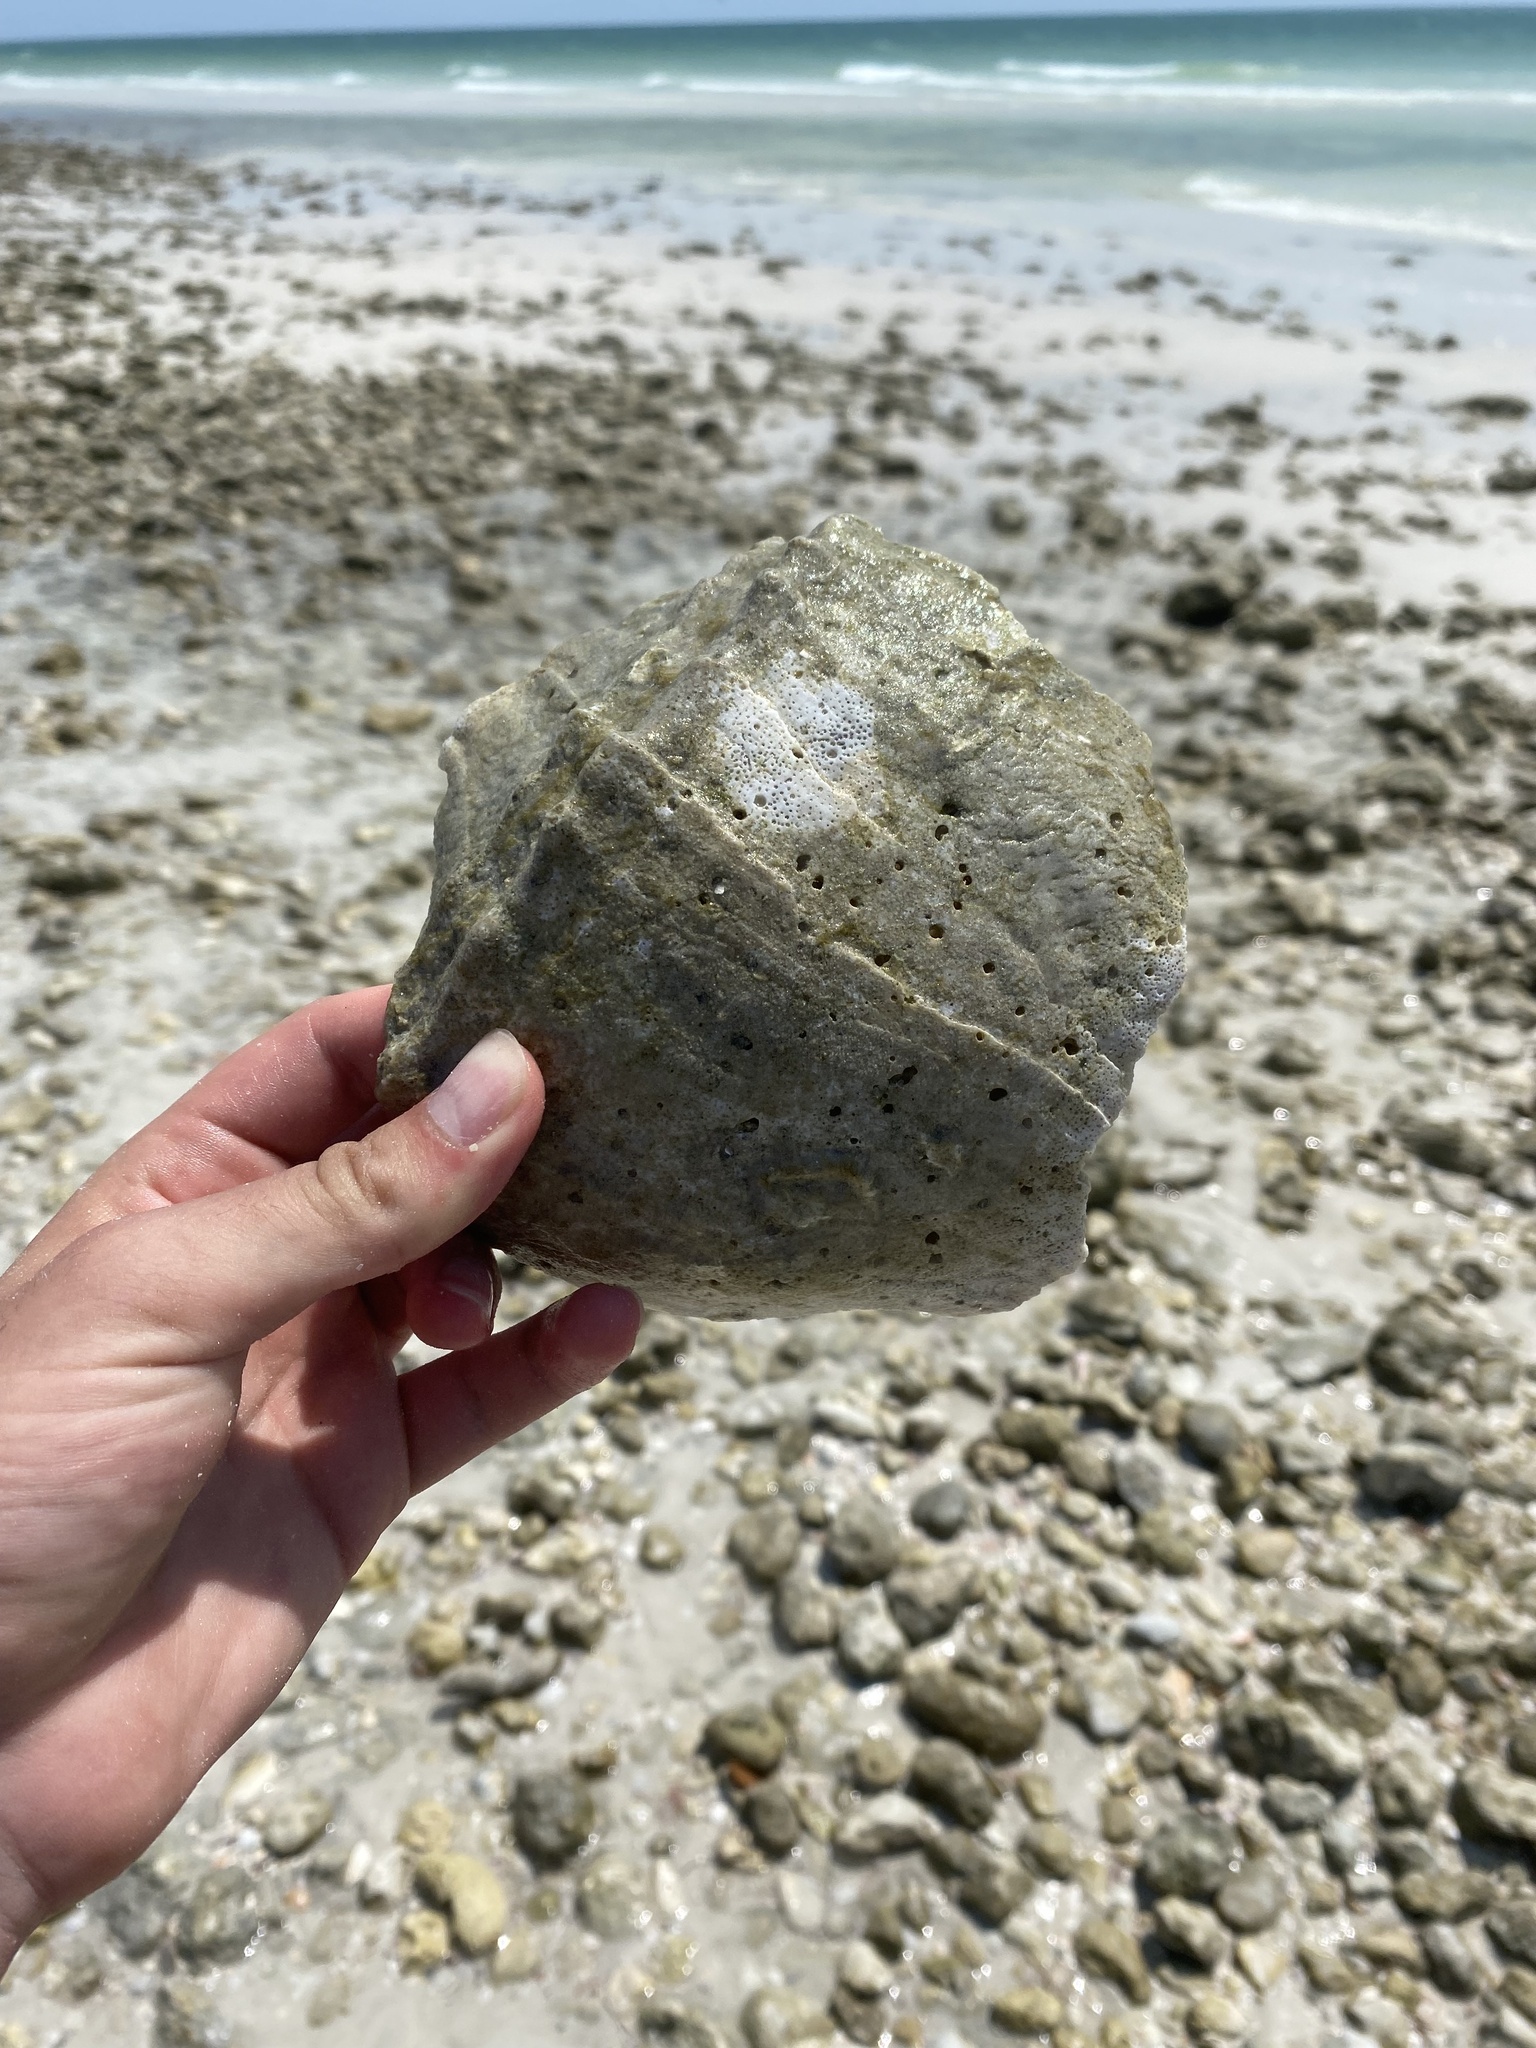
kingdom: Animalia
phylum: Mollusca
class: Gastropoda
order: Neogastropoda
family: Busyconidae
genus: Sinistrofulgur
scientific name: Sinistrofulgur sinistrum
